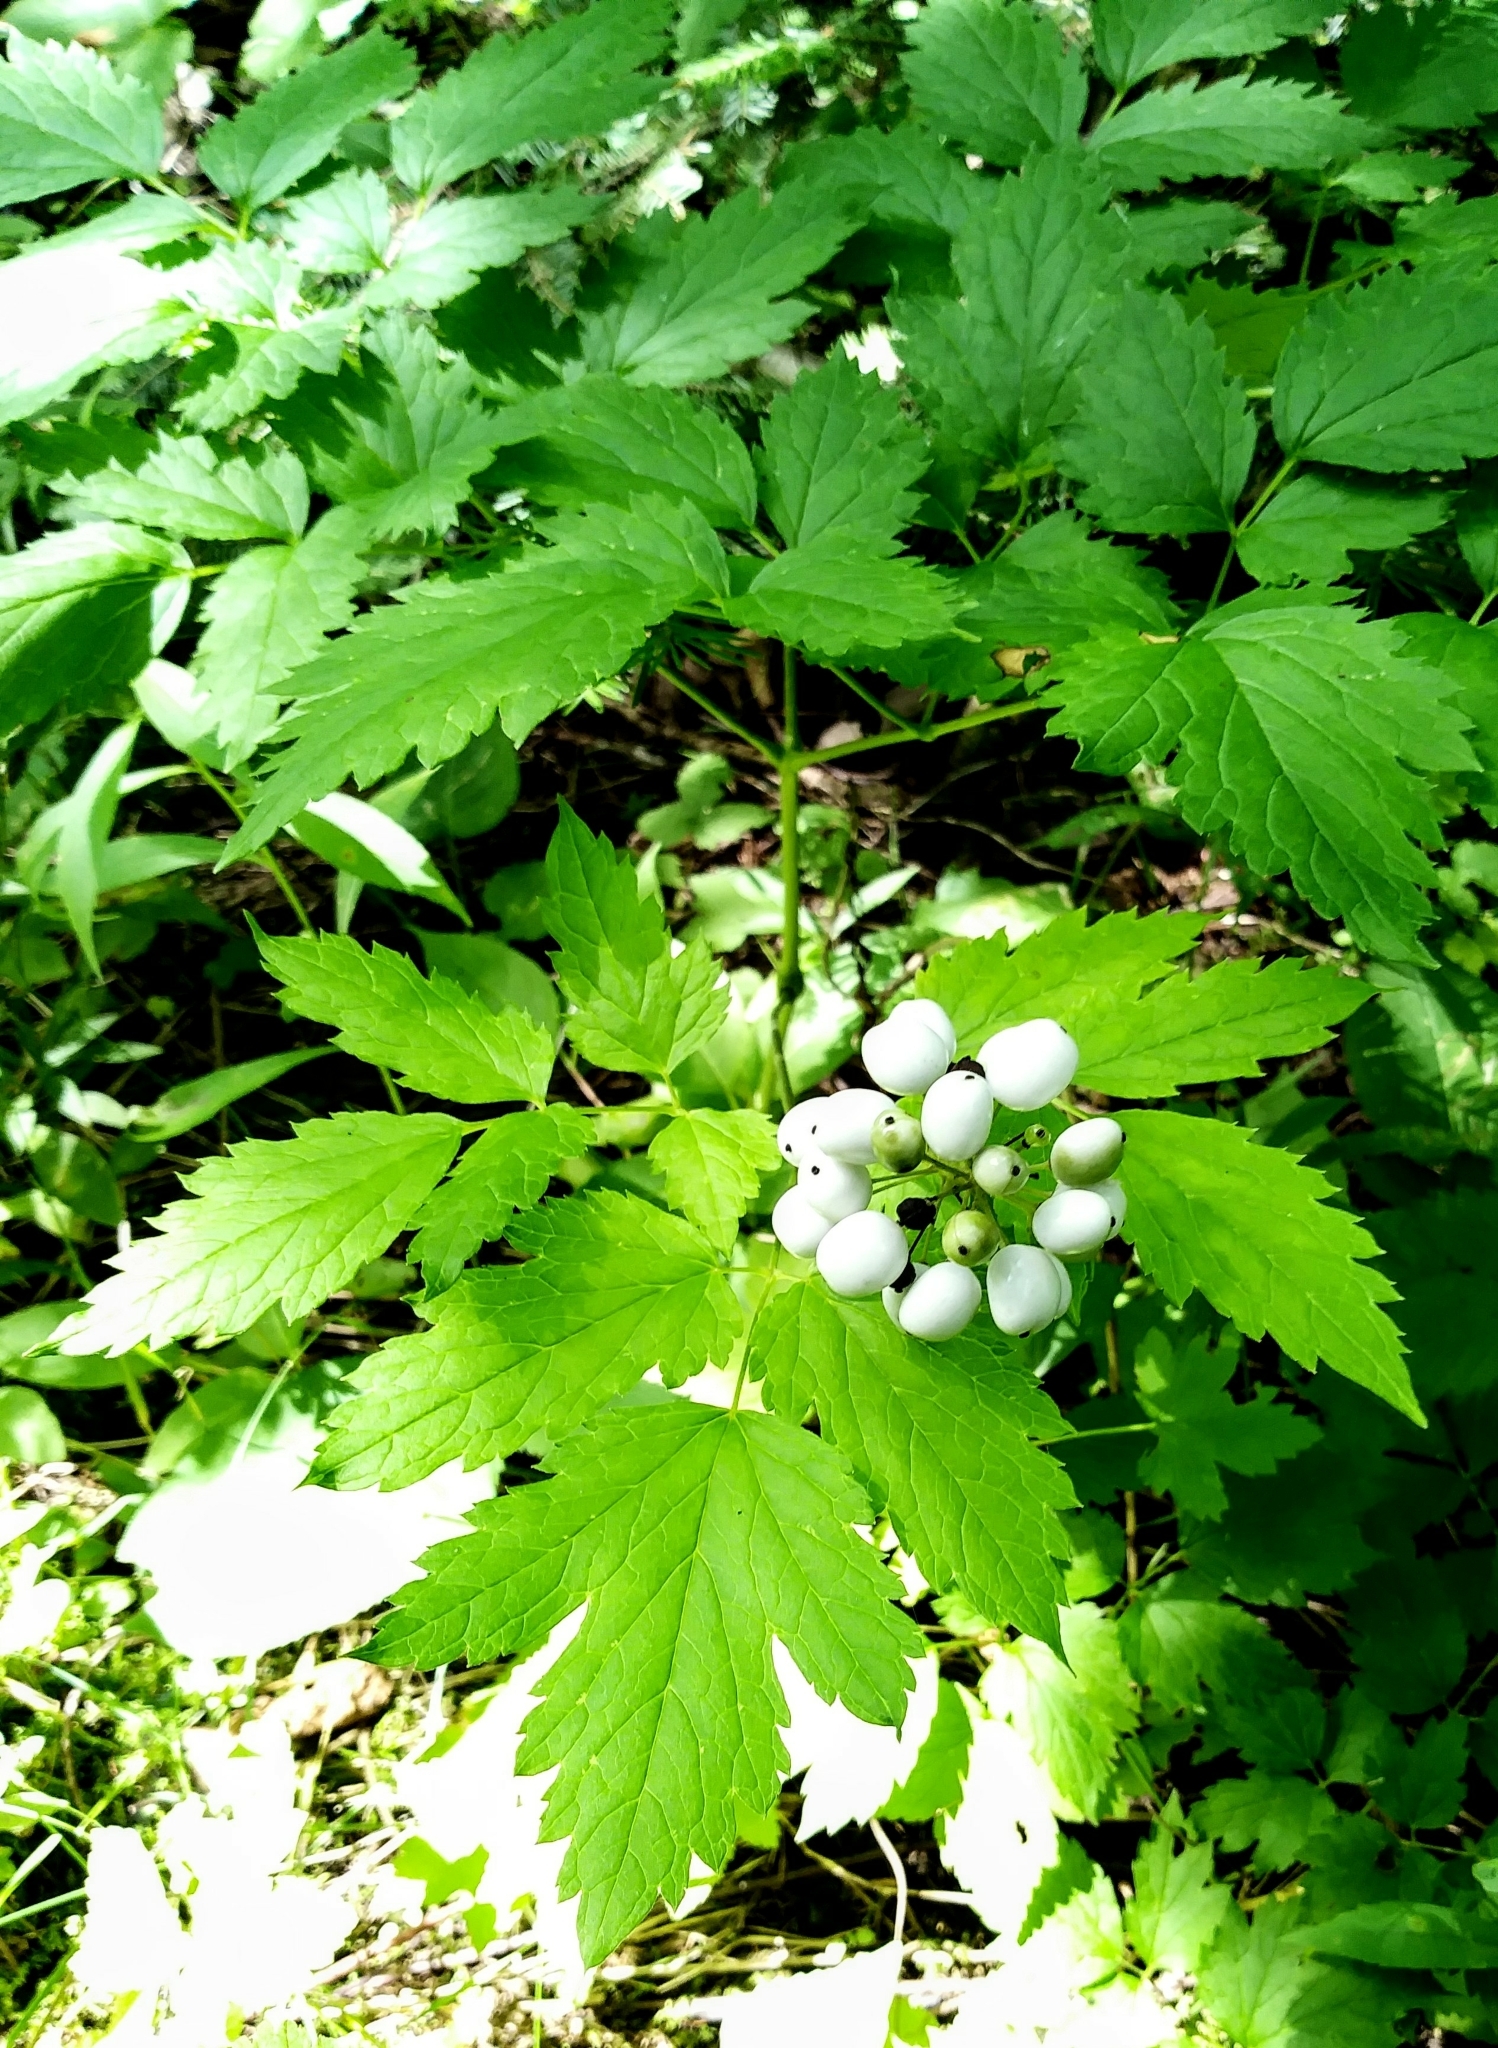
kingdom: Plantae
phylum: Tracheophyta
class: Magnoliopsida
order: Ranunculales
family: Ranunculaceae
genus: Actaea
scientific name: Actaea rubra
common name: Red baneberry
